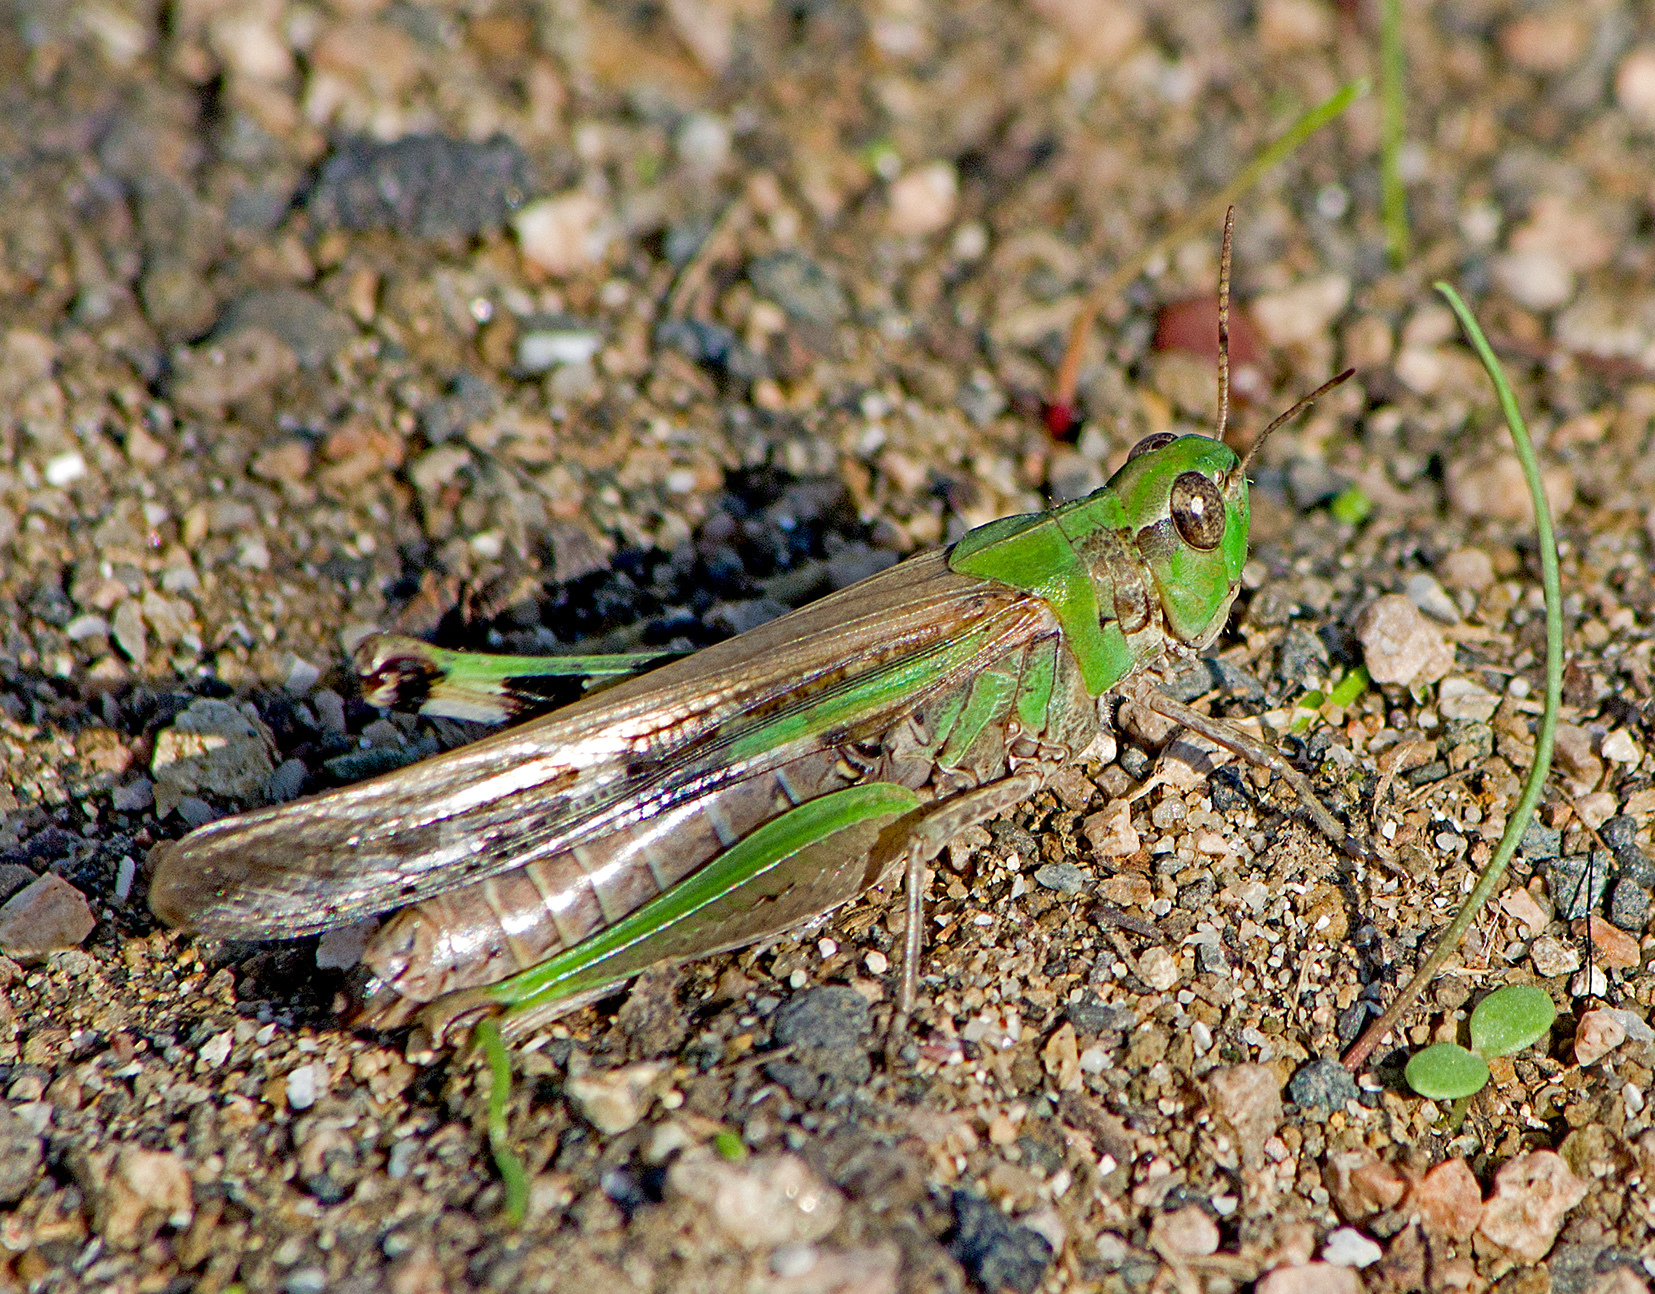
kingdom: Animalia
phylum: Arthropoda
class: Insecta
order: Orthoptera
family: Acrididae
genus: Aiolopus
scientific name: Aiolopus thalassinus
